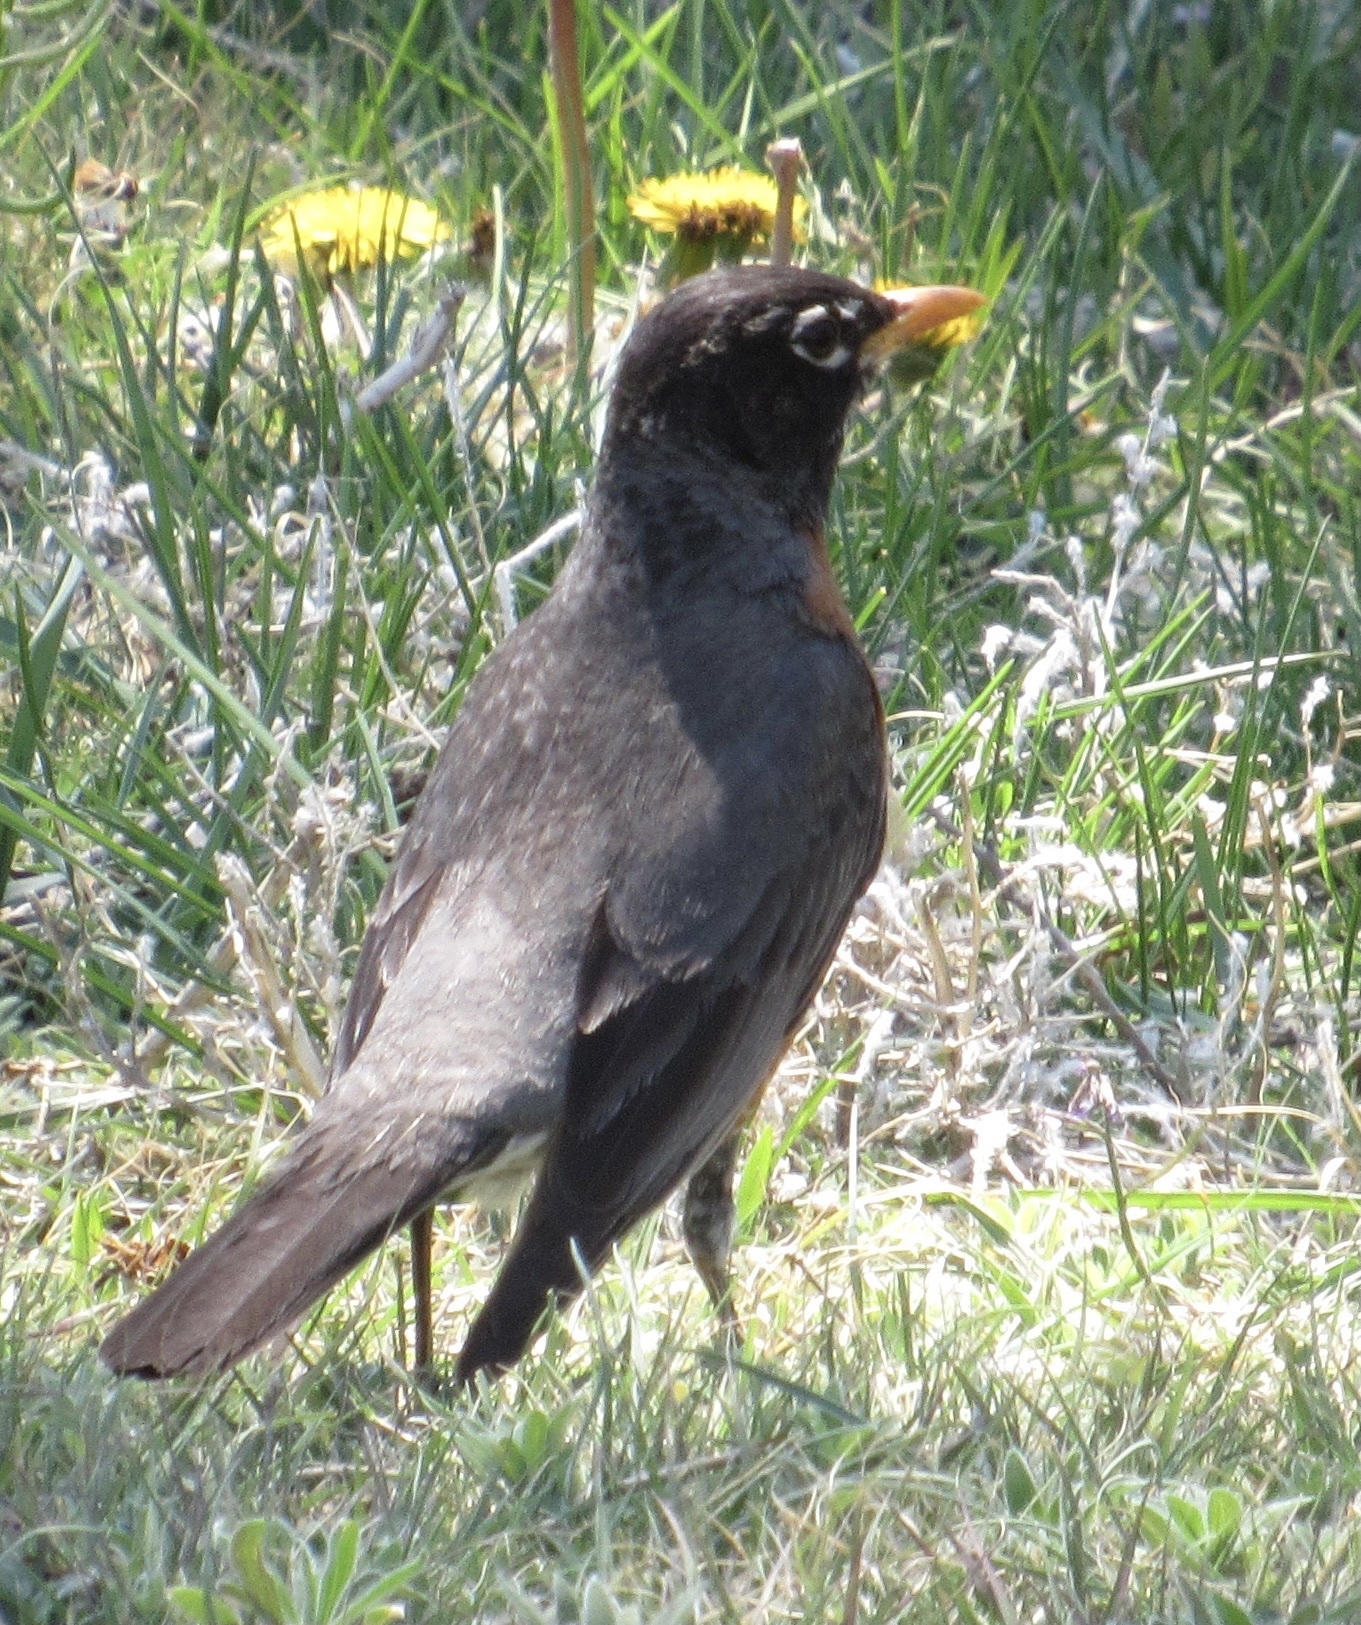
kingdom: Animalia
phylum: Chordata
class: Aves
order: Passeriformes
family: Turdidae
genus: Turdus
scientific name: Turdus migratorius
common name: American robin
